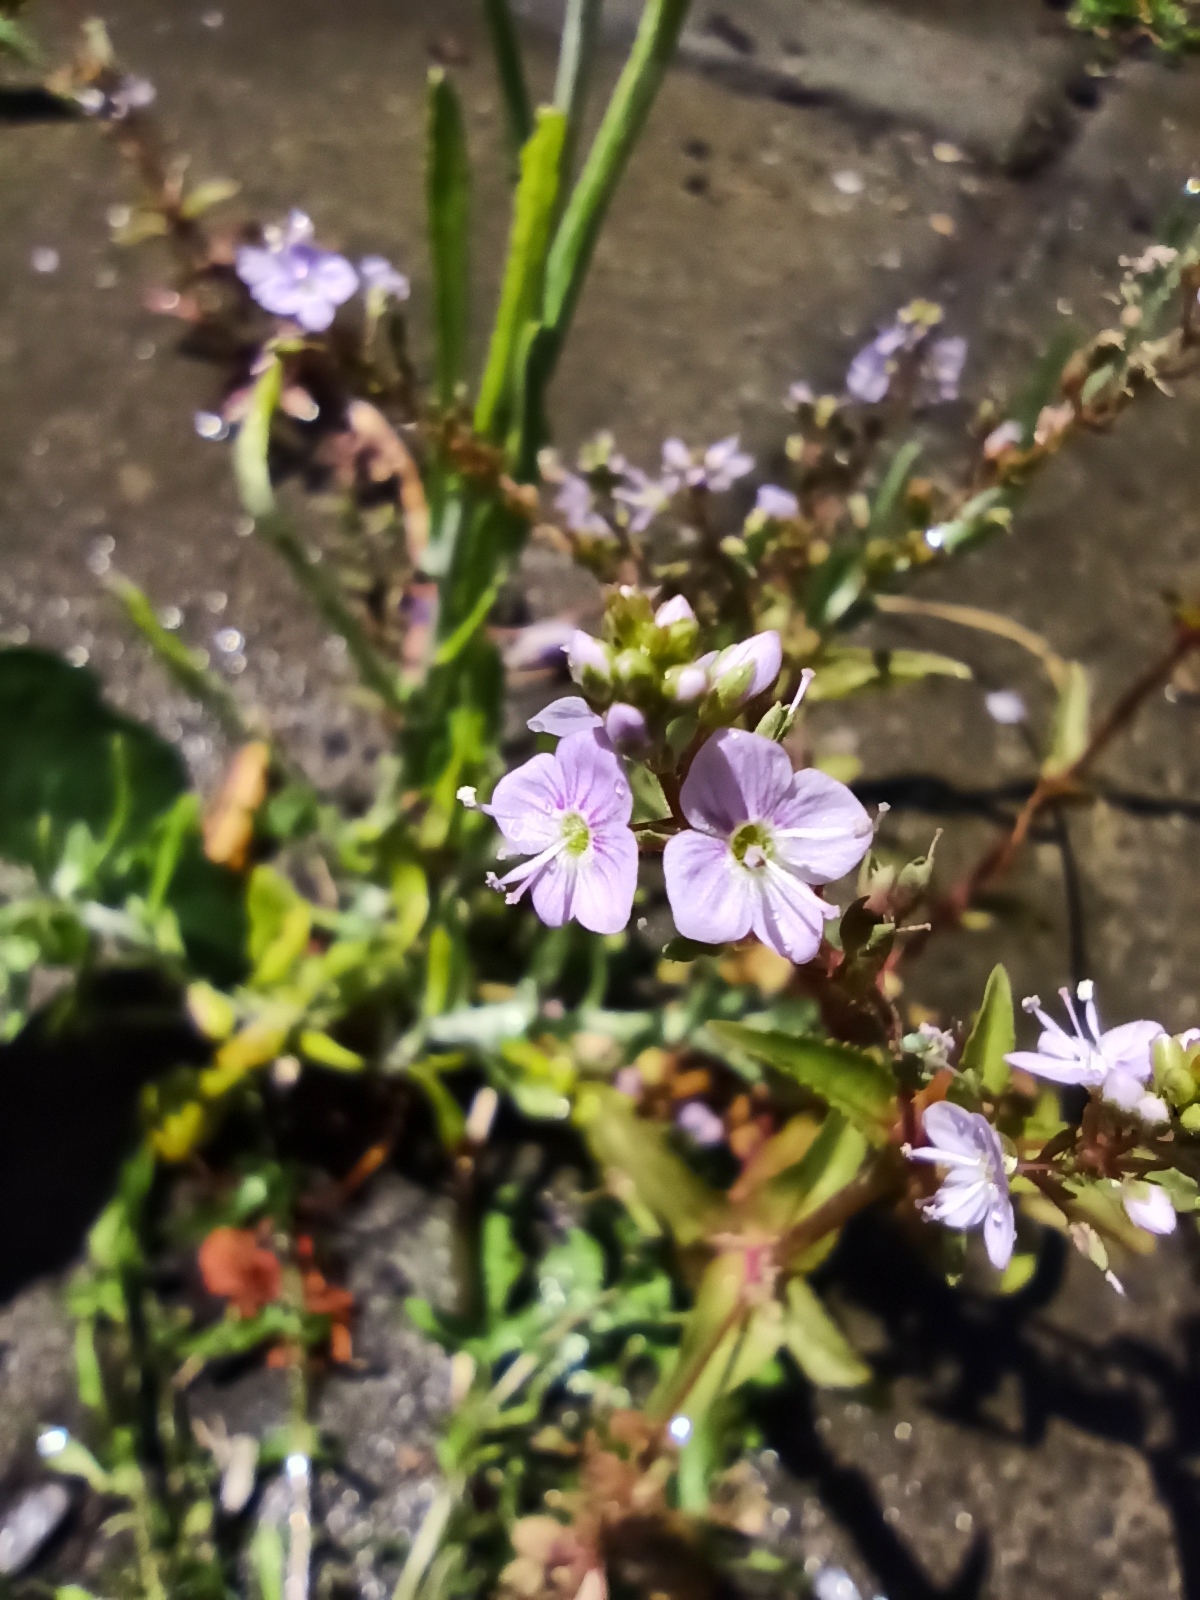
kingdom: Plantae
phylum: Tracheophyta
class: Magnoliopsida
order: Lamiales
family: Plantaginaceae
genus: Veronica
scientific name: Veronica anagallis-aquatica
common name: Water speedwell
